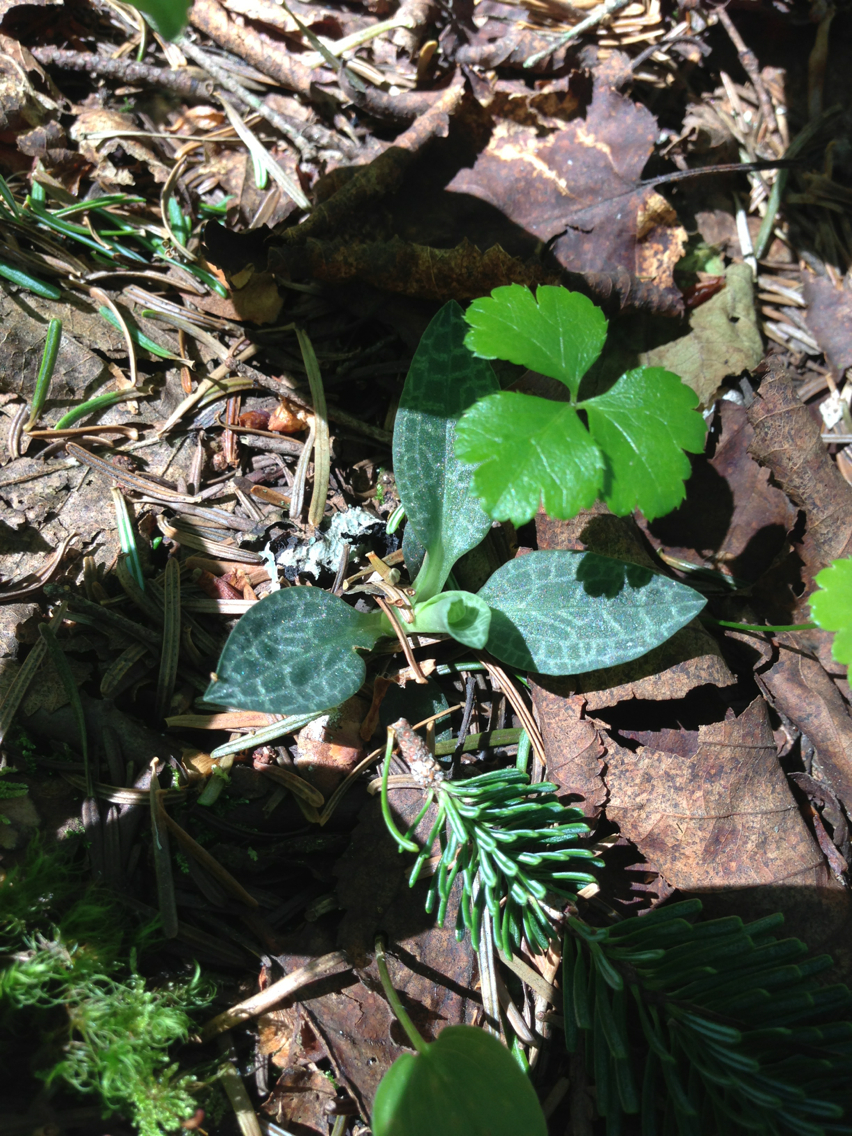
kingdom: Plantae
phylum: Tracheophyta
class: Liliopsida
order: Asparagales
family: Orchidaceae
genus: Goodyera
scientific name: Goodyera tesselata
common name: Checkered rattlesnake-plantain
